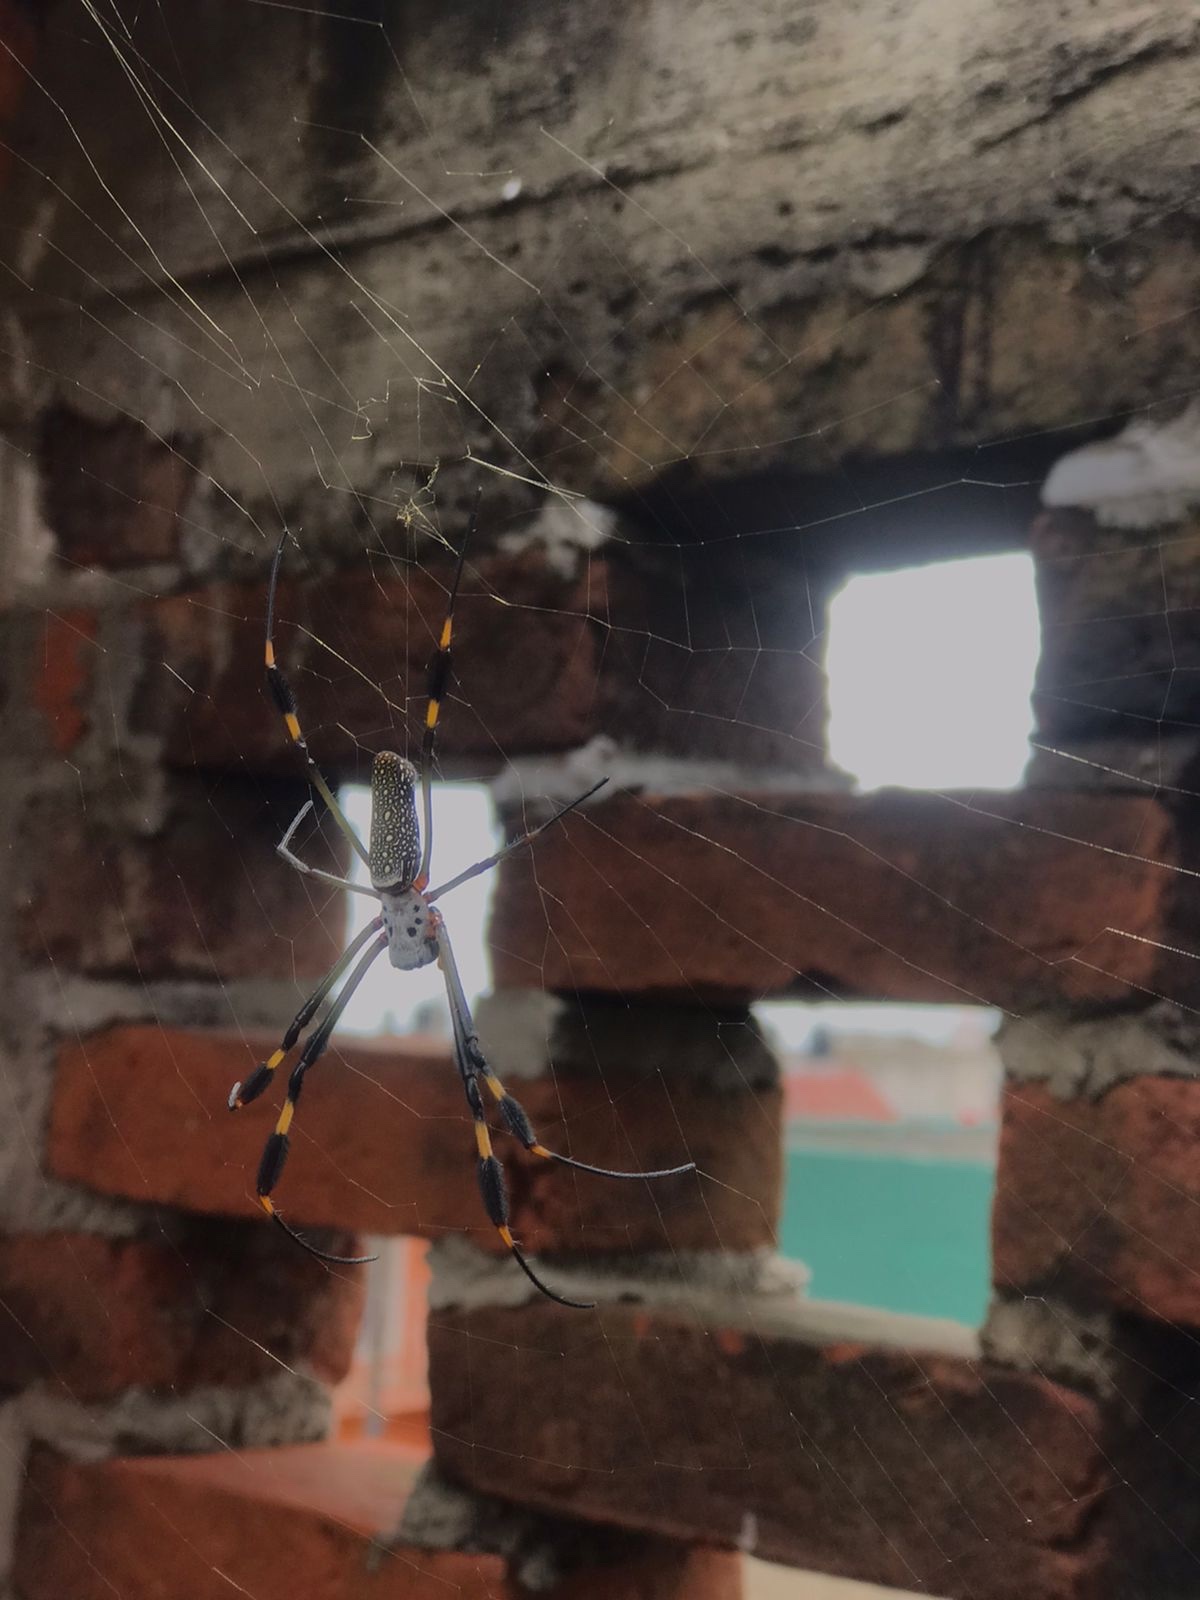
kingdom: Animalia
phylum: Arthropoda
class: Arachnida
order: Araneae
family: Araneidae
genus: Trichonephila
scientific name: Trichonephila clavipes
